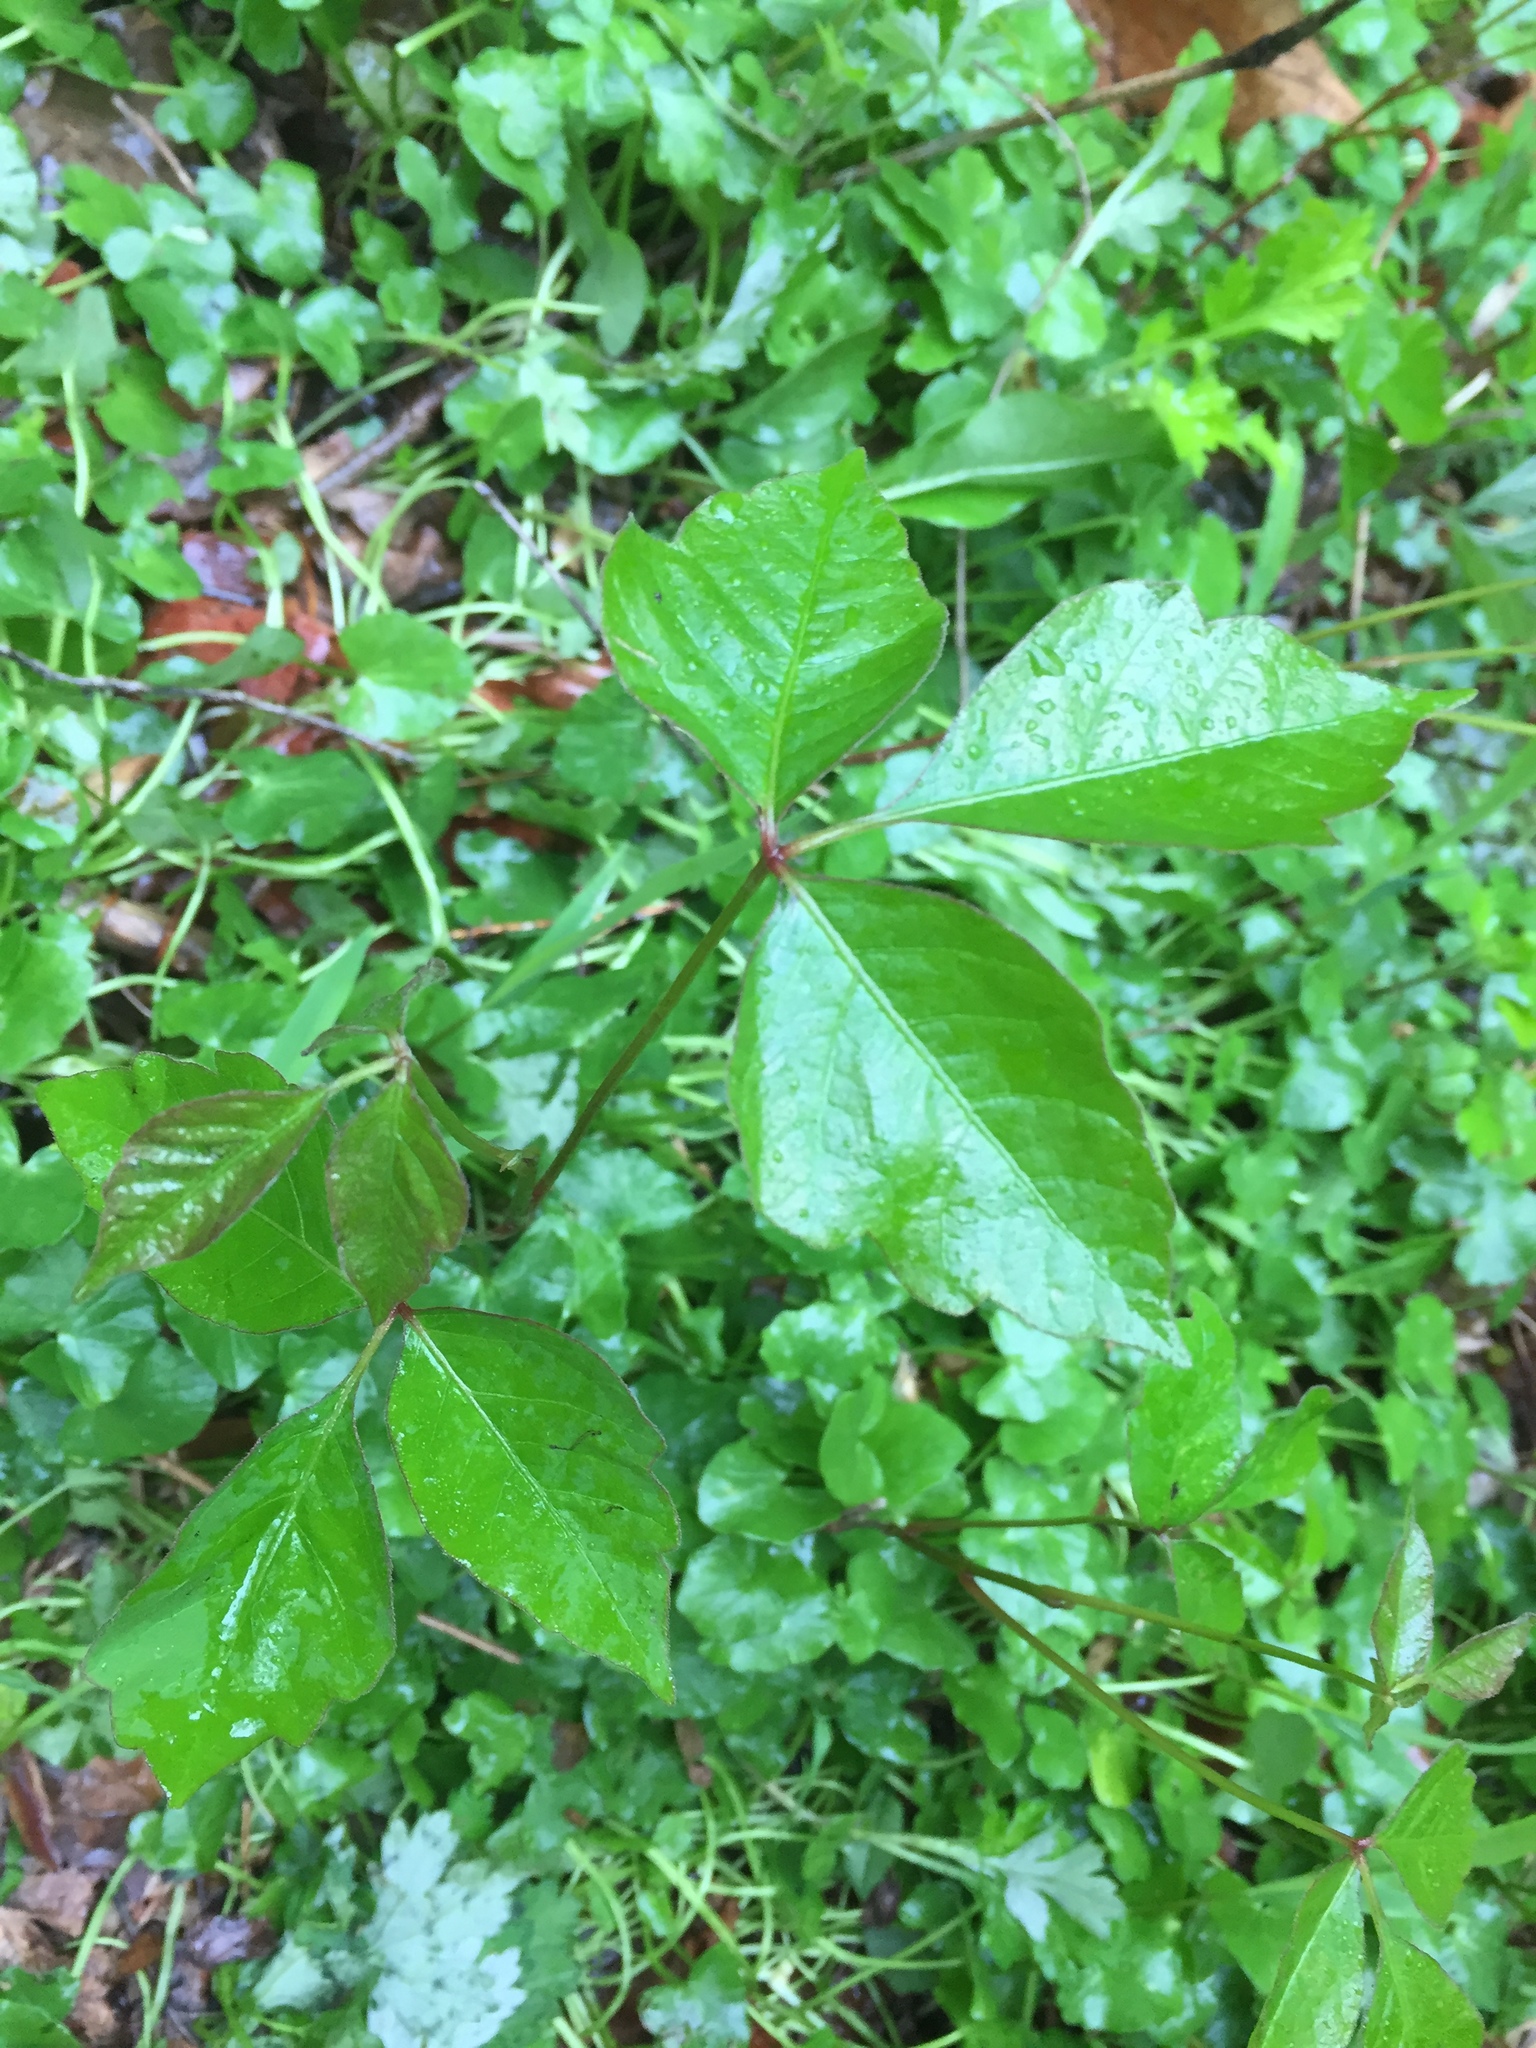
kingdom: Plantae
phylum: Tracheophyta
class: Magnoliopsida
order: Sapindales
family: Anacardiaceae
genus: Toxicodendron
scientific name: Toxicodendron radicans
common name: Poison ivy
